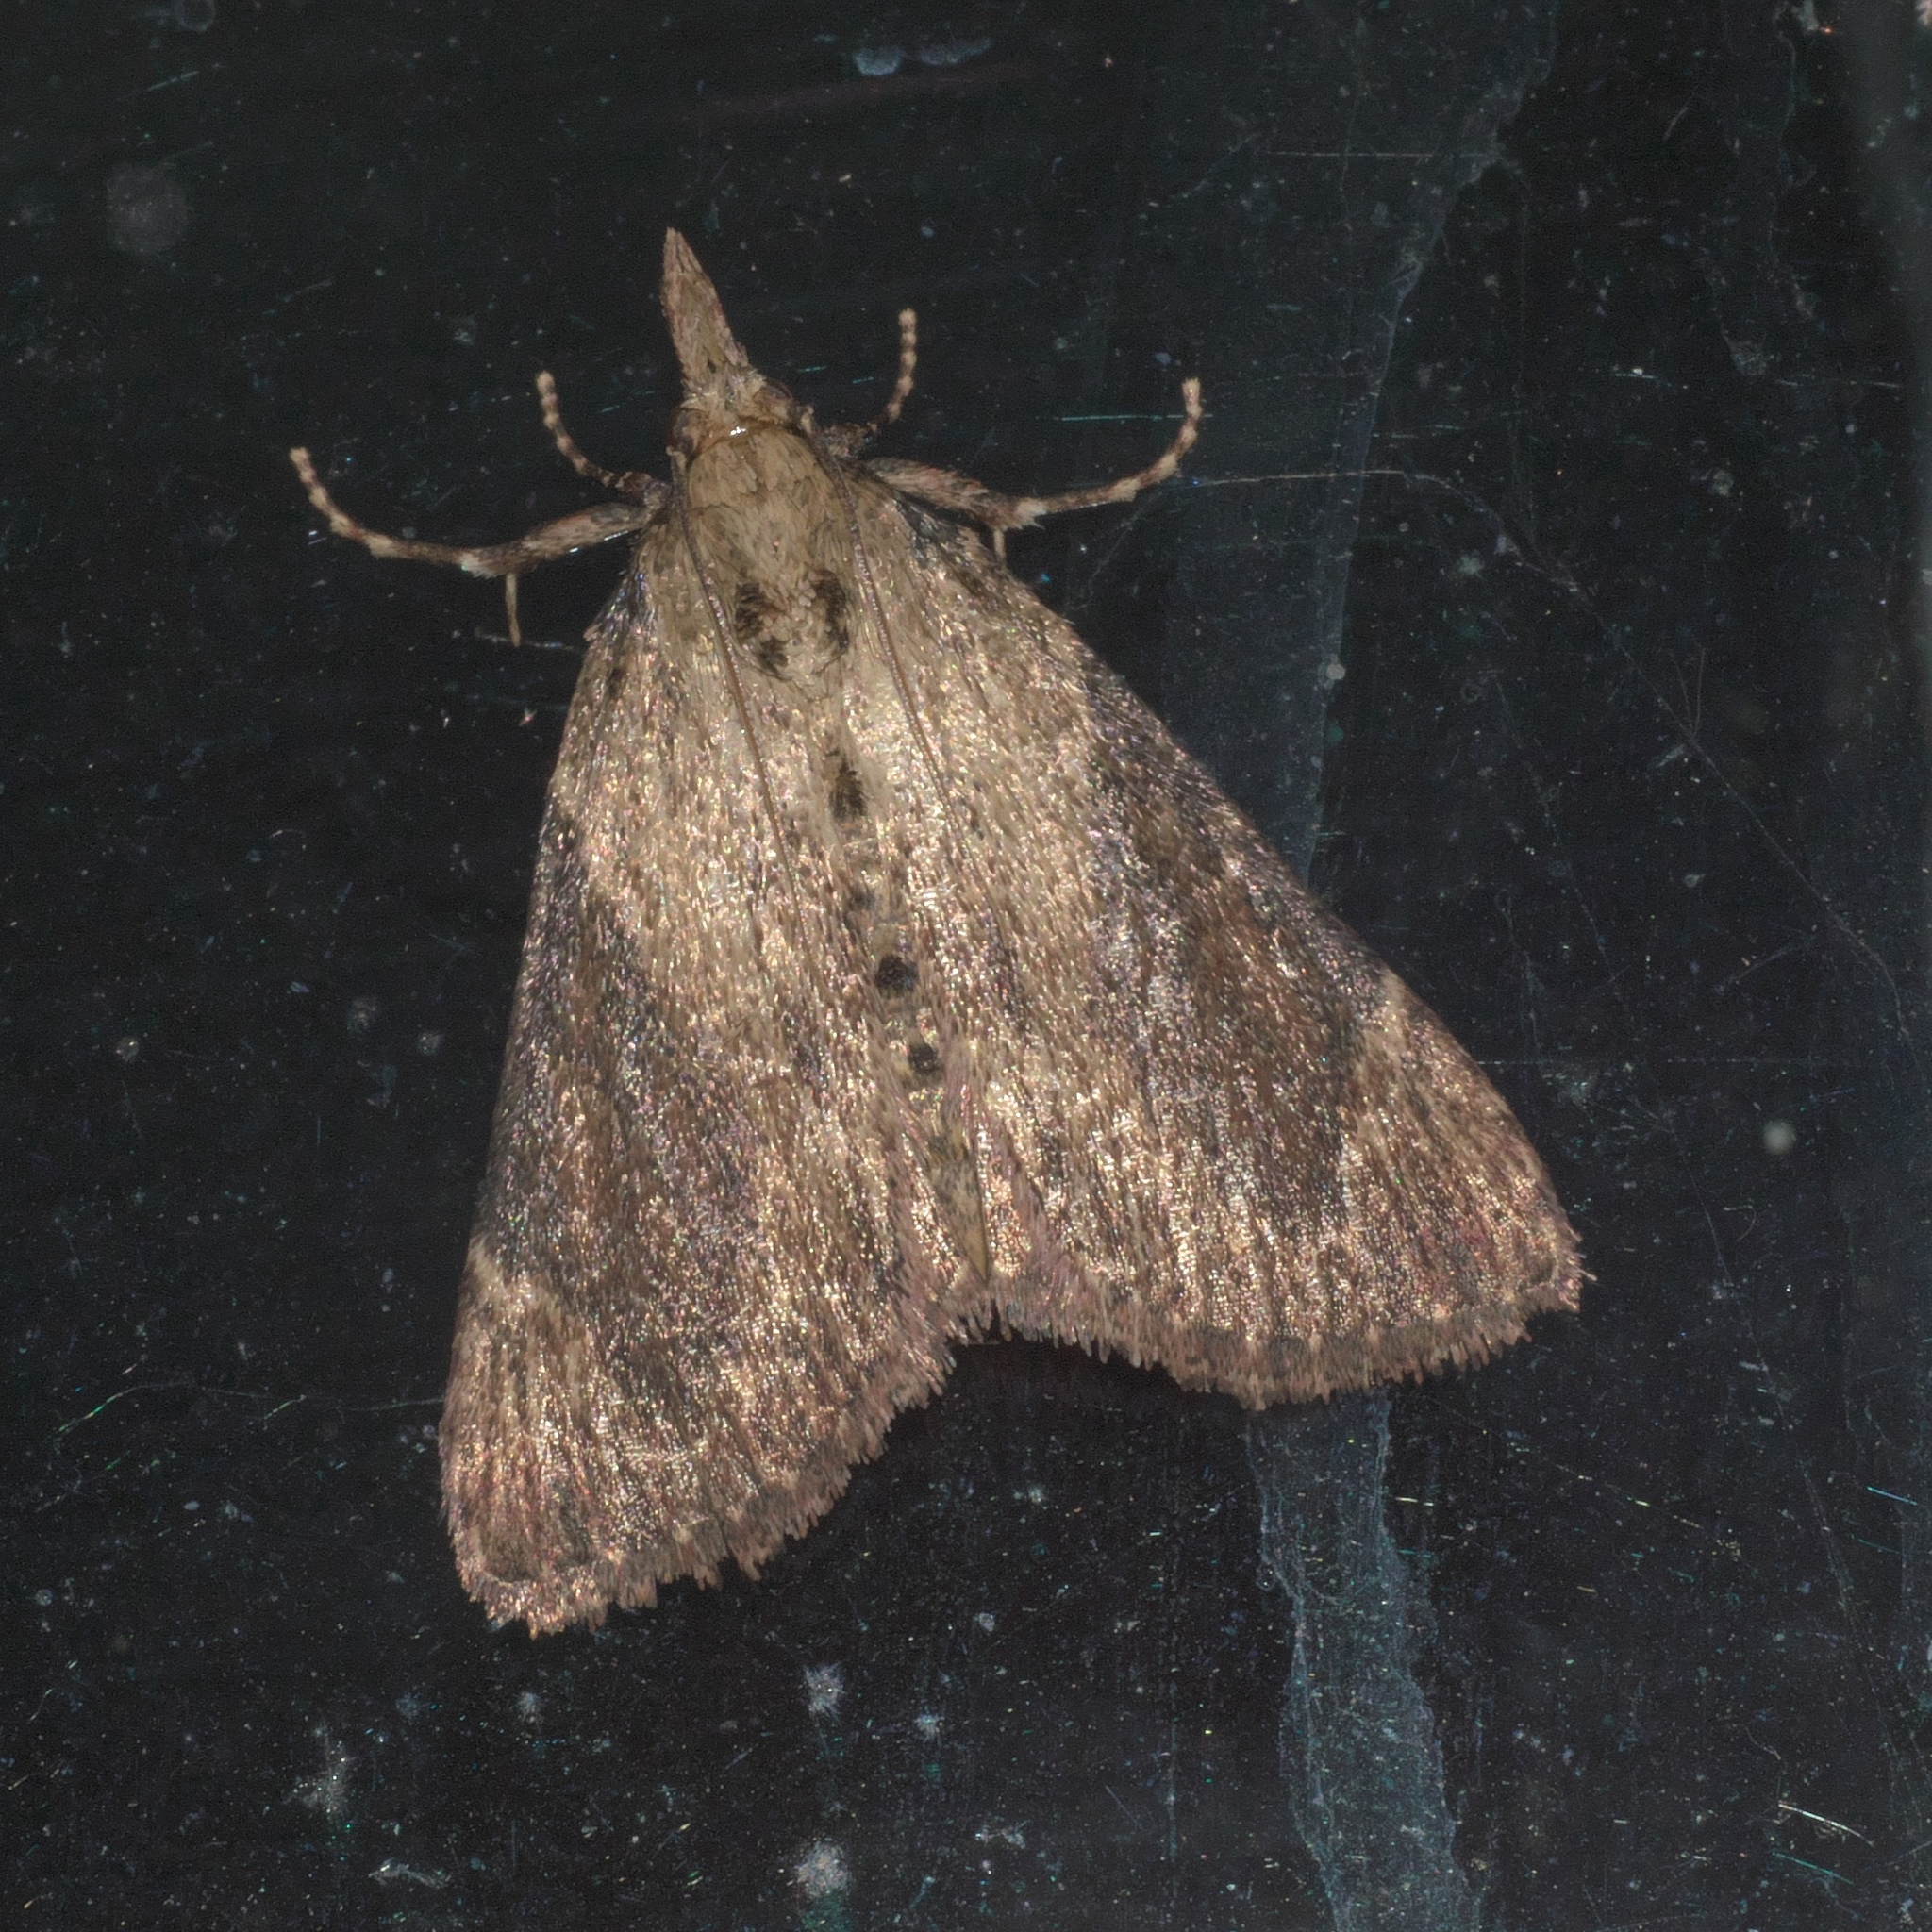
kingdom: Animalia
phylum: Arthropoda
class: Insecta
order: Lepidoptera
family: Pyralidae
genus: Omphalocera
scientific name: Omphalocera cariosa
